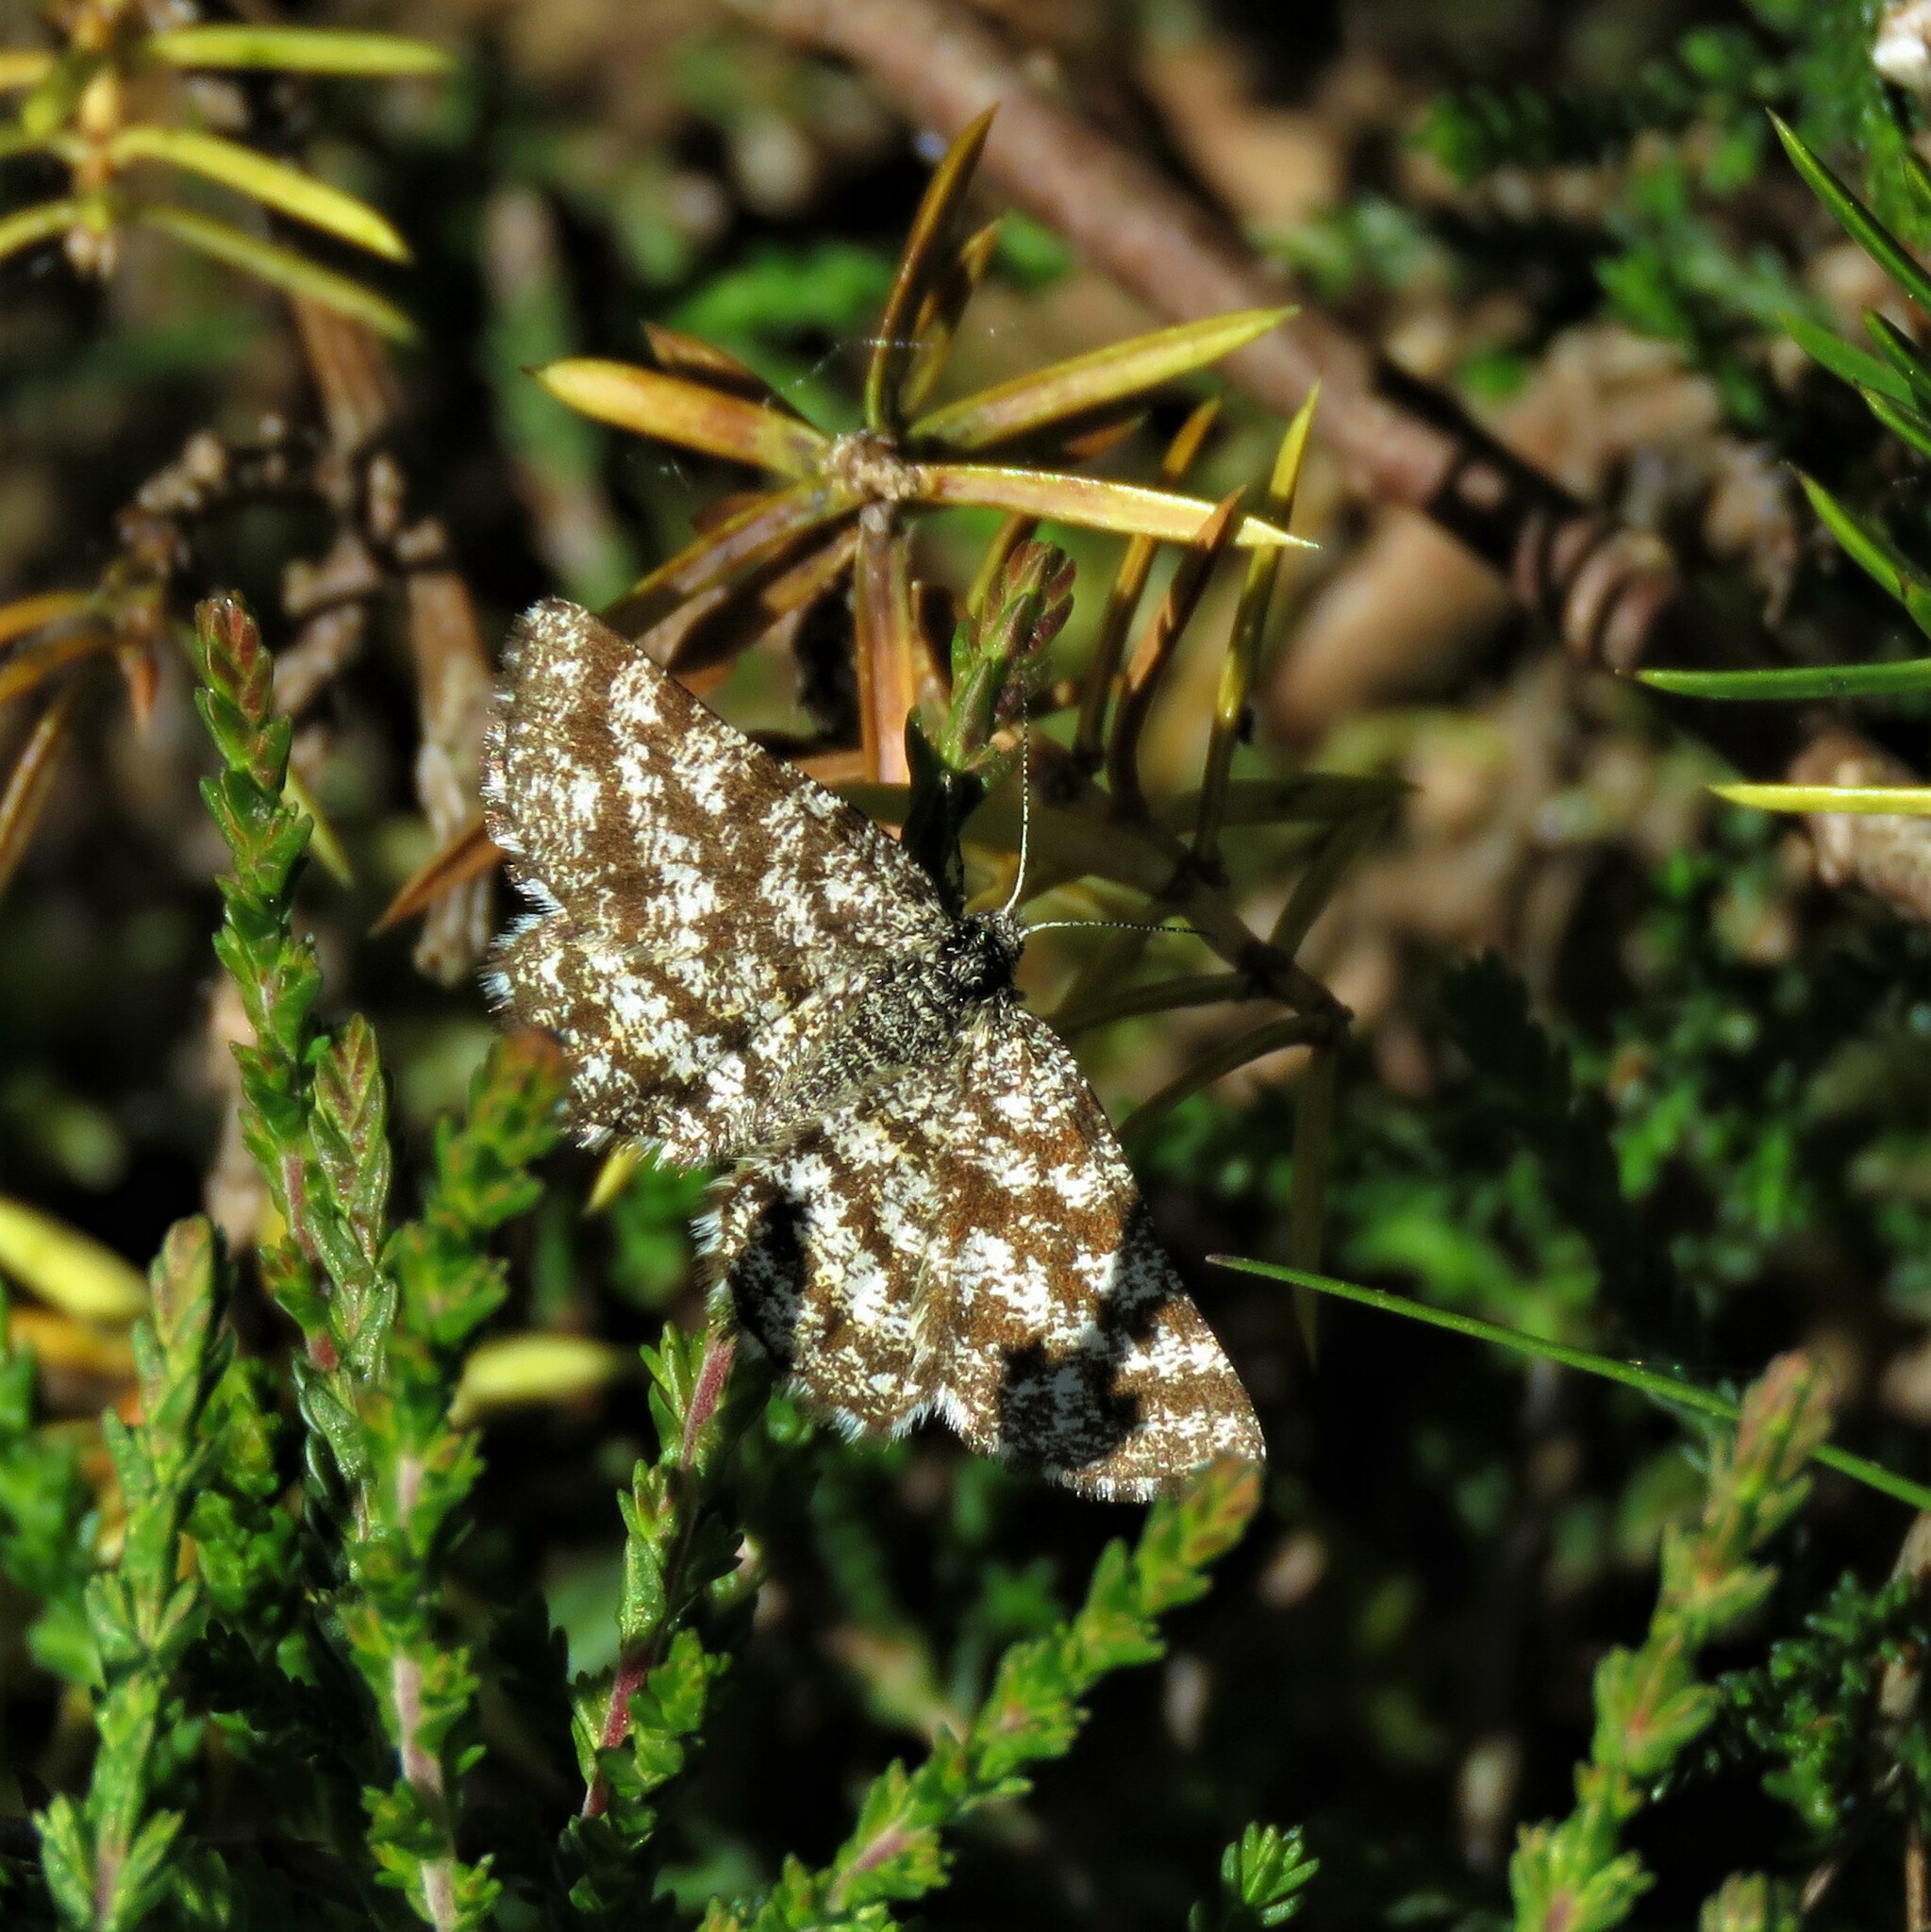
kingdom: Animalia
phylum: Arthropoda
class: Insecta
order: Lepidoptera
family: Geometridae
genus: Ematurga
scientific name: Ematurga atomaria
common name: Common heath
